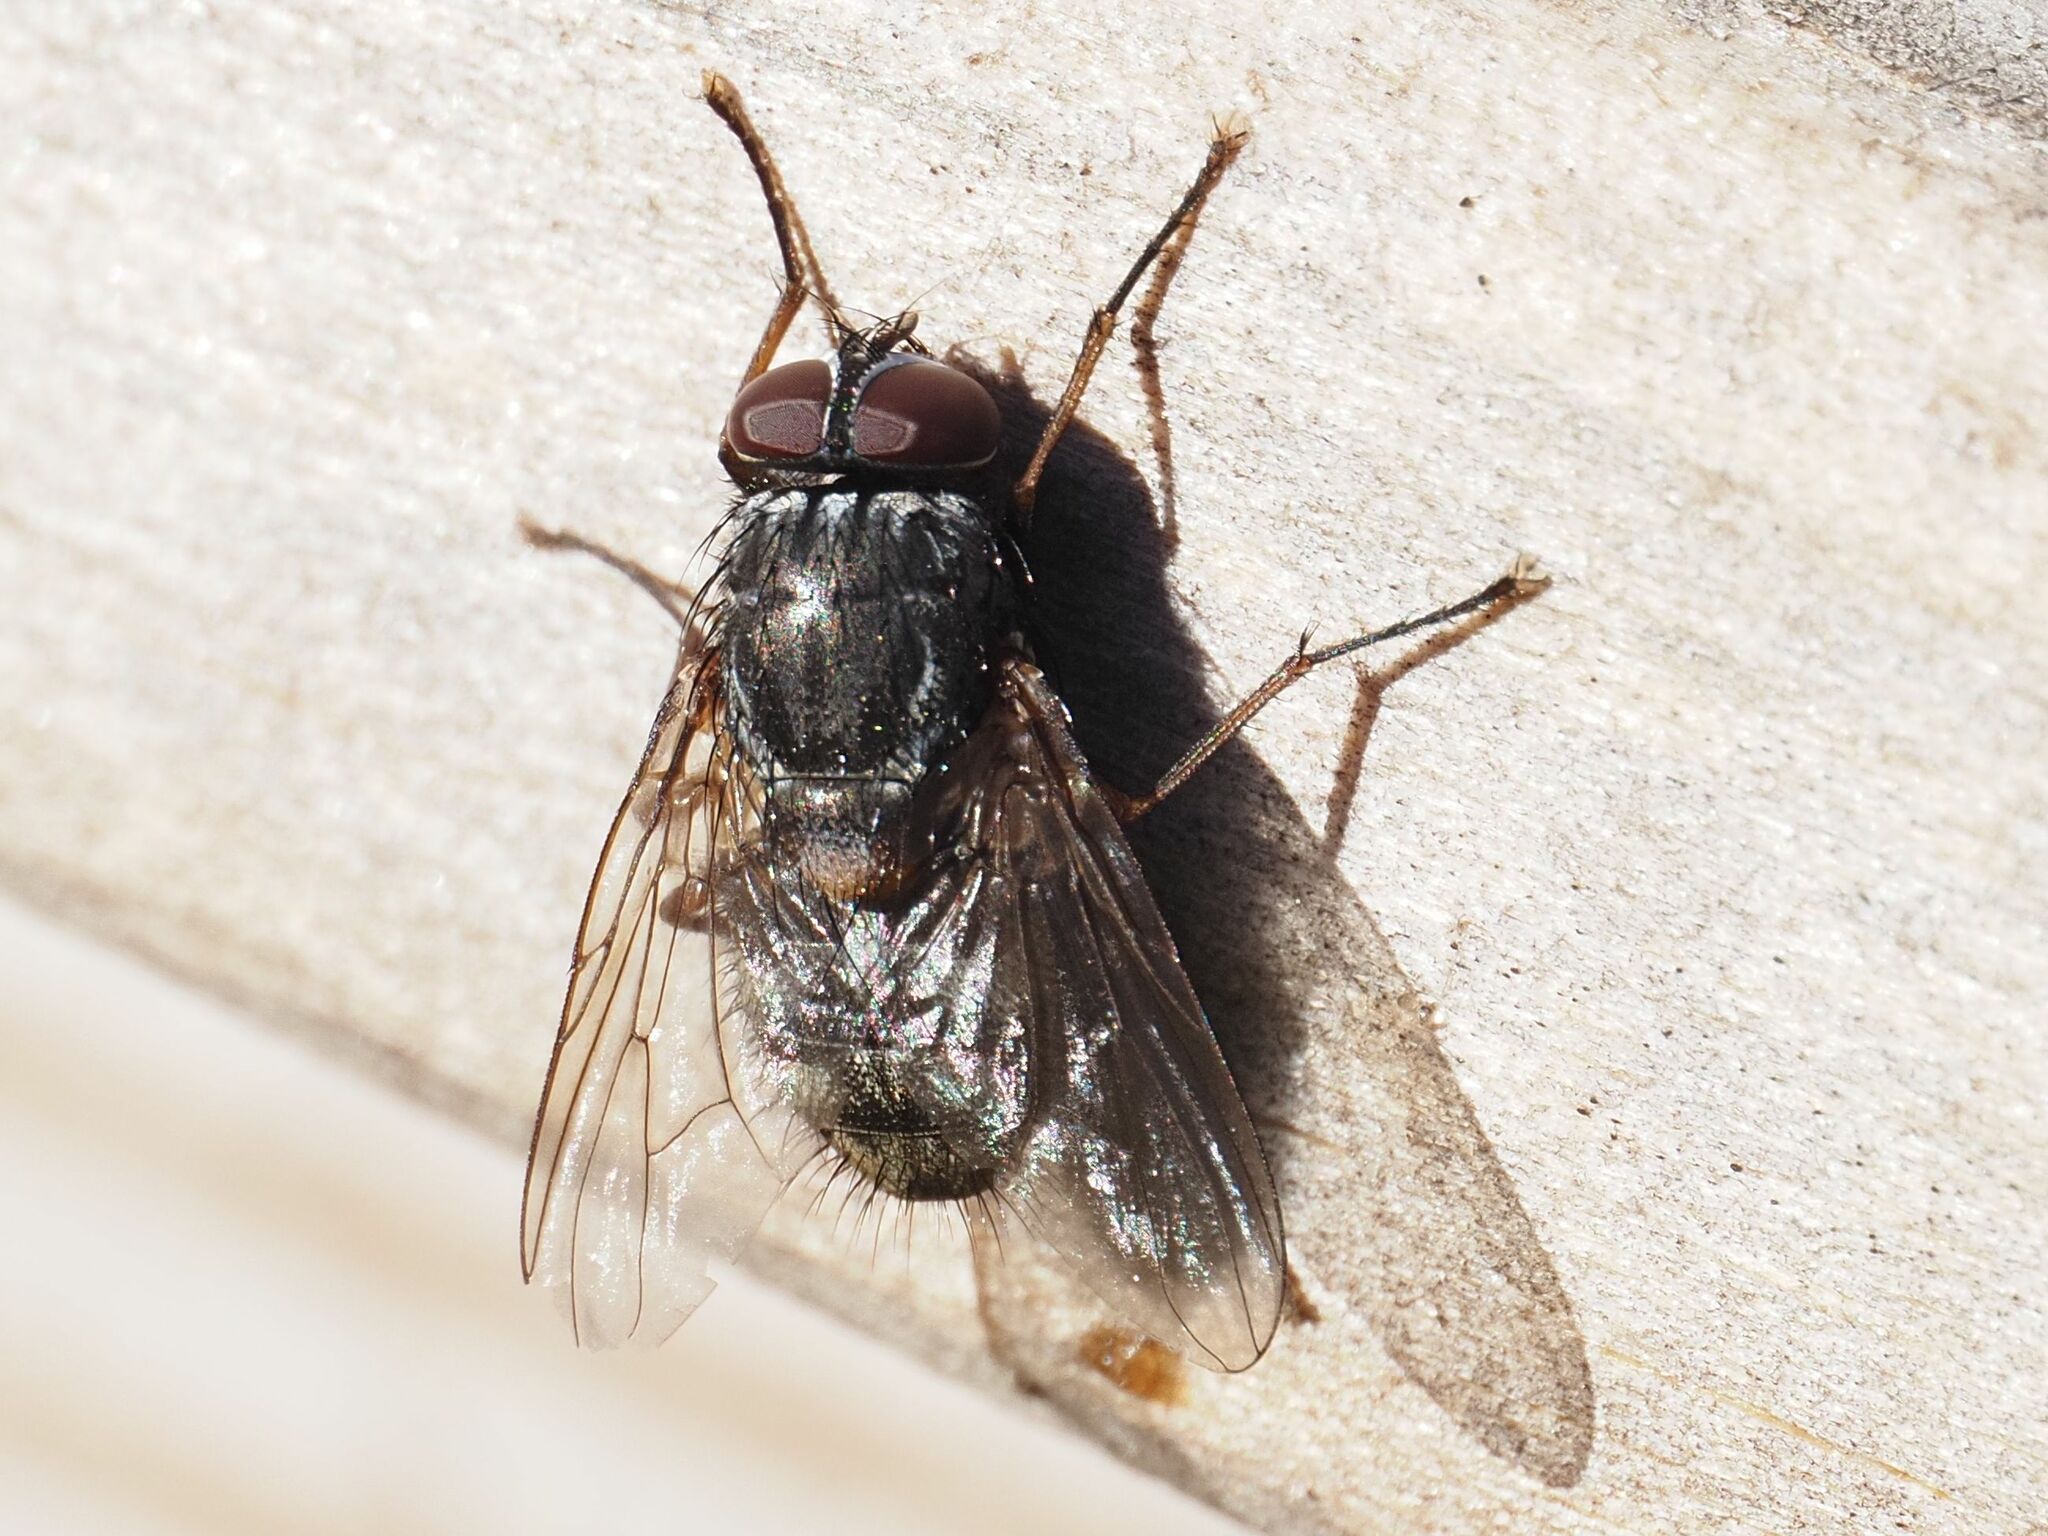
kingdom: Animalia
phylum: Arthropoda
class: Insecta
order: Diptera
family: Muscidae
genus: Muscina
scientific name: Muscina stabulans
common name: False stable fly
